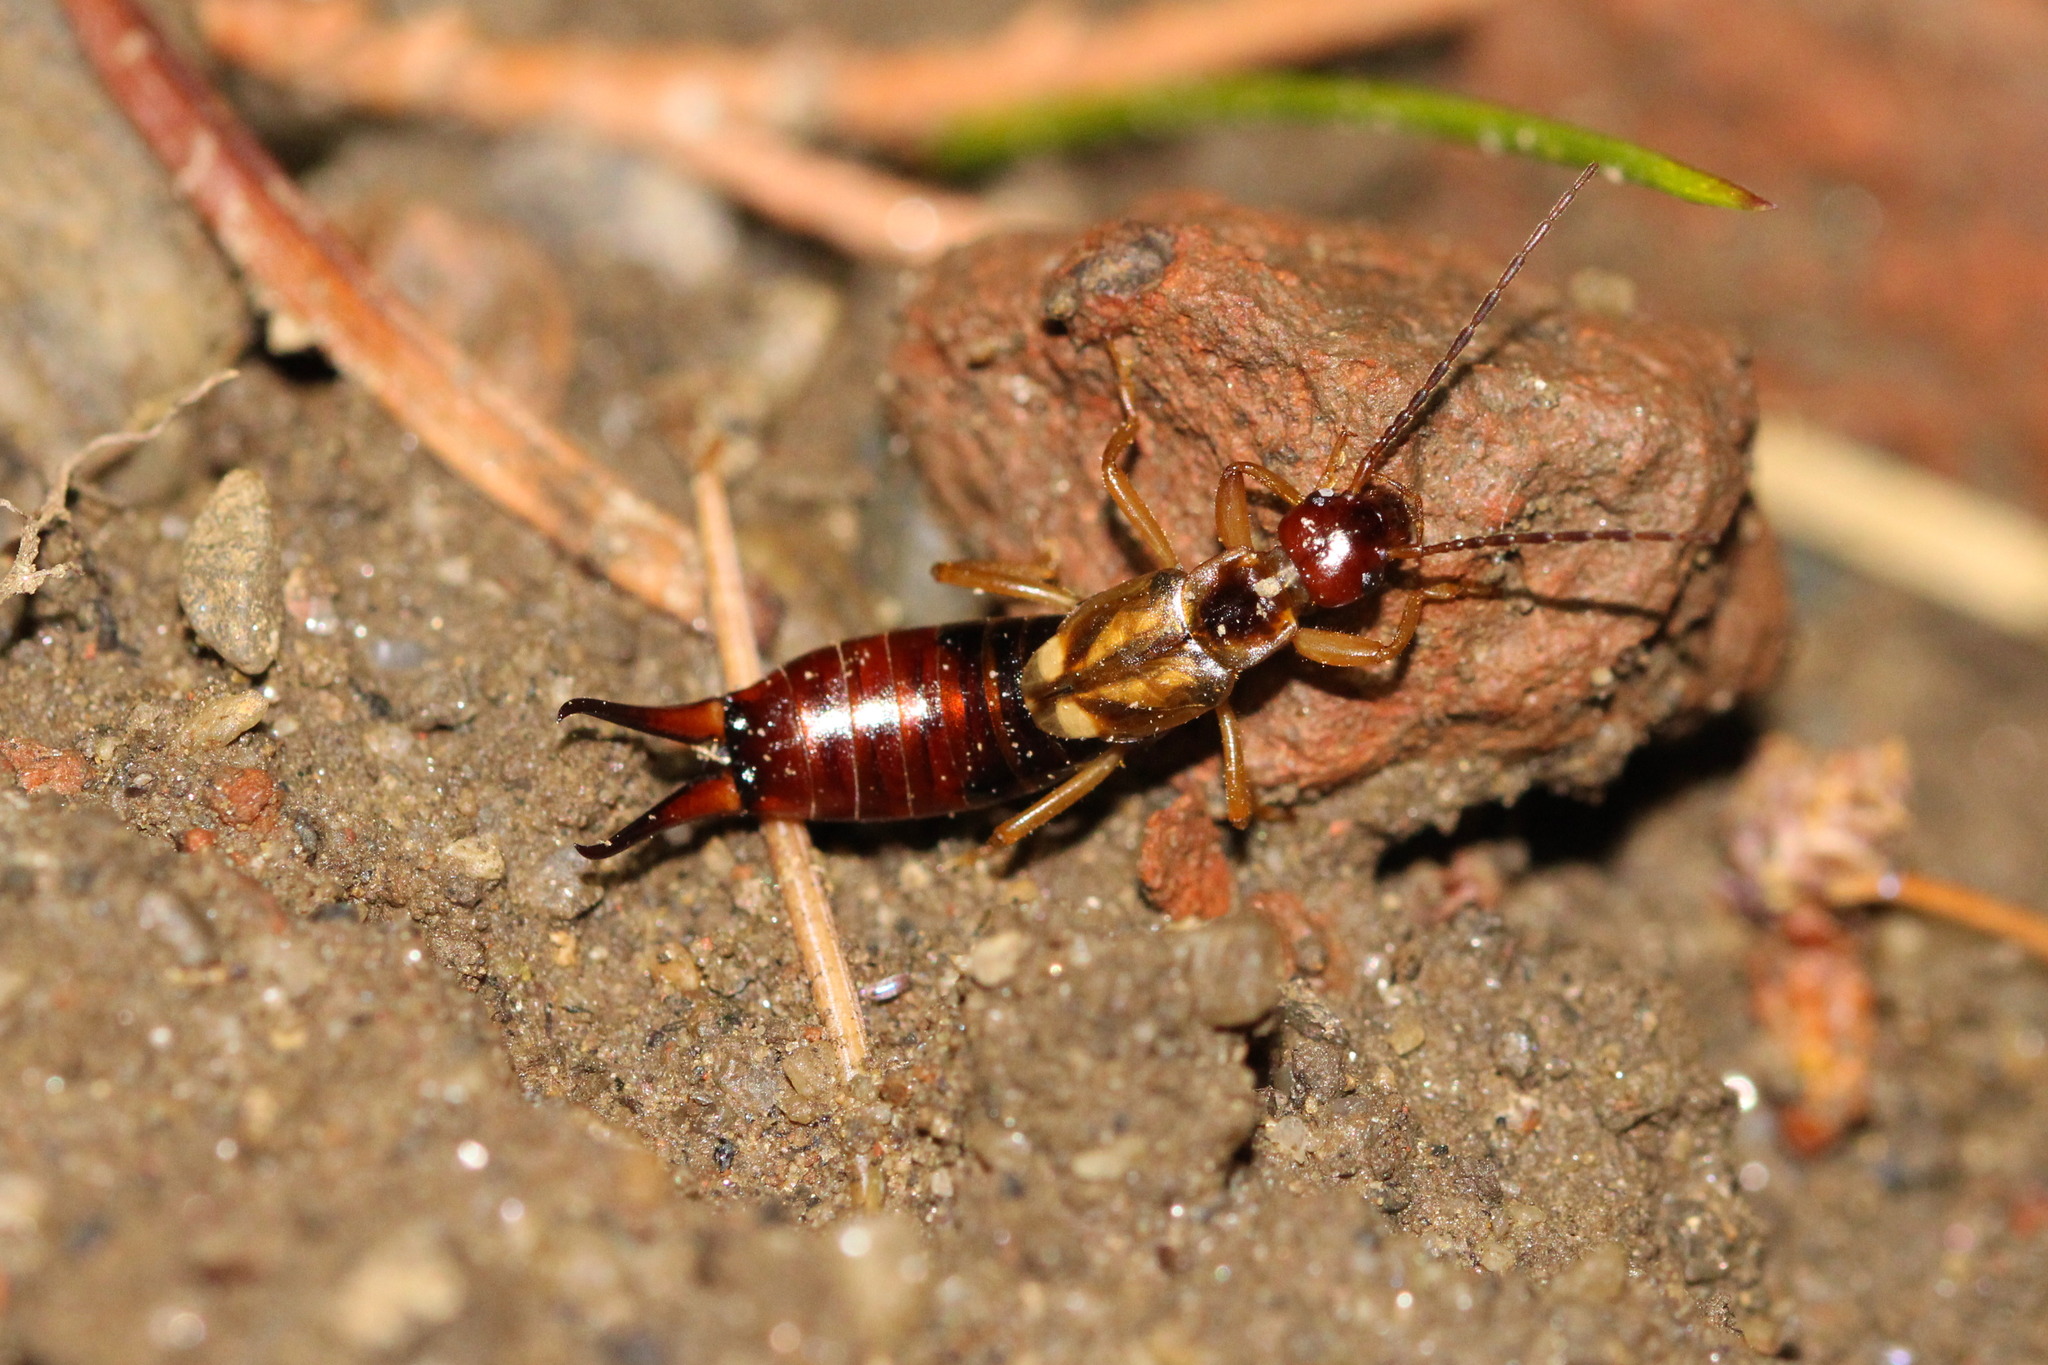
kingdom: Animalia
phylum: Arthropoda
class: Insecta
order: Dermaptera
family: Forficulidae
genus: Forficula
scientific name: Forficula
